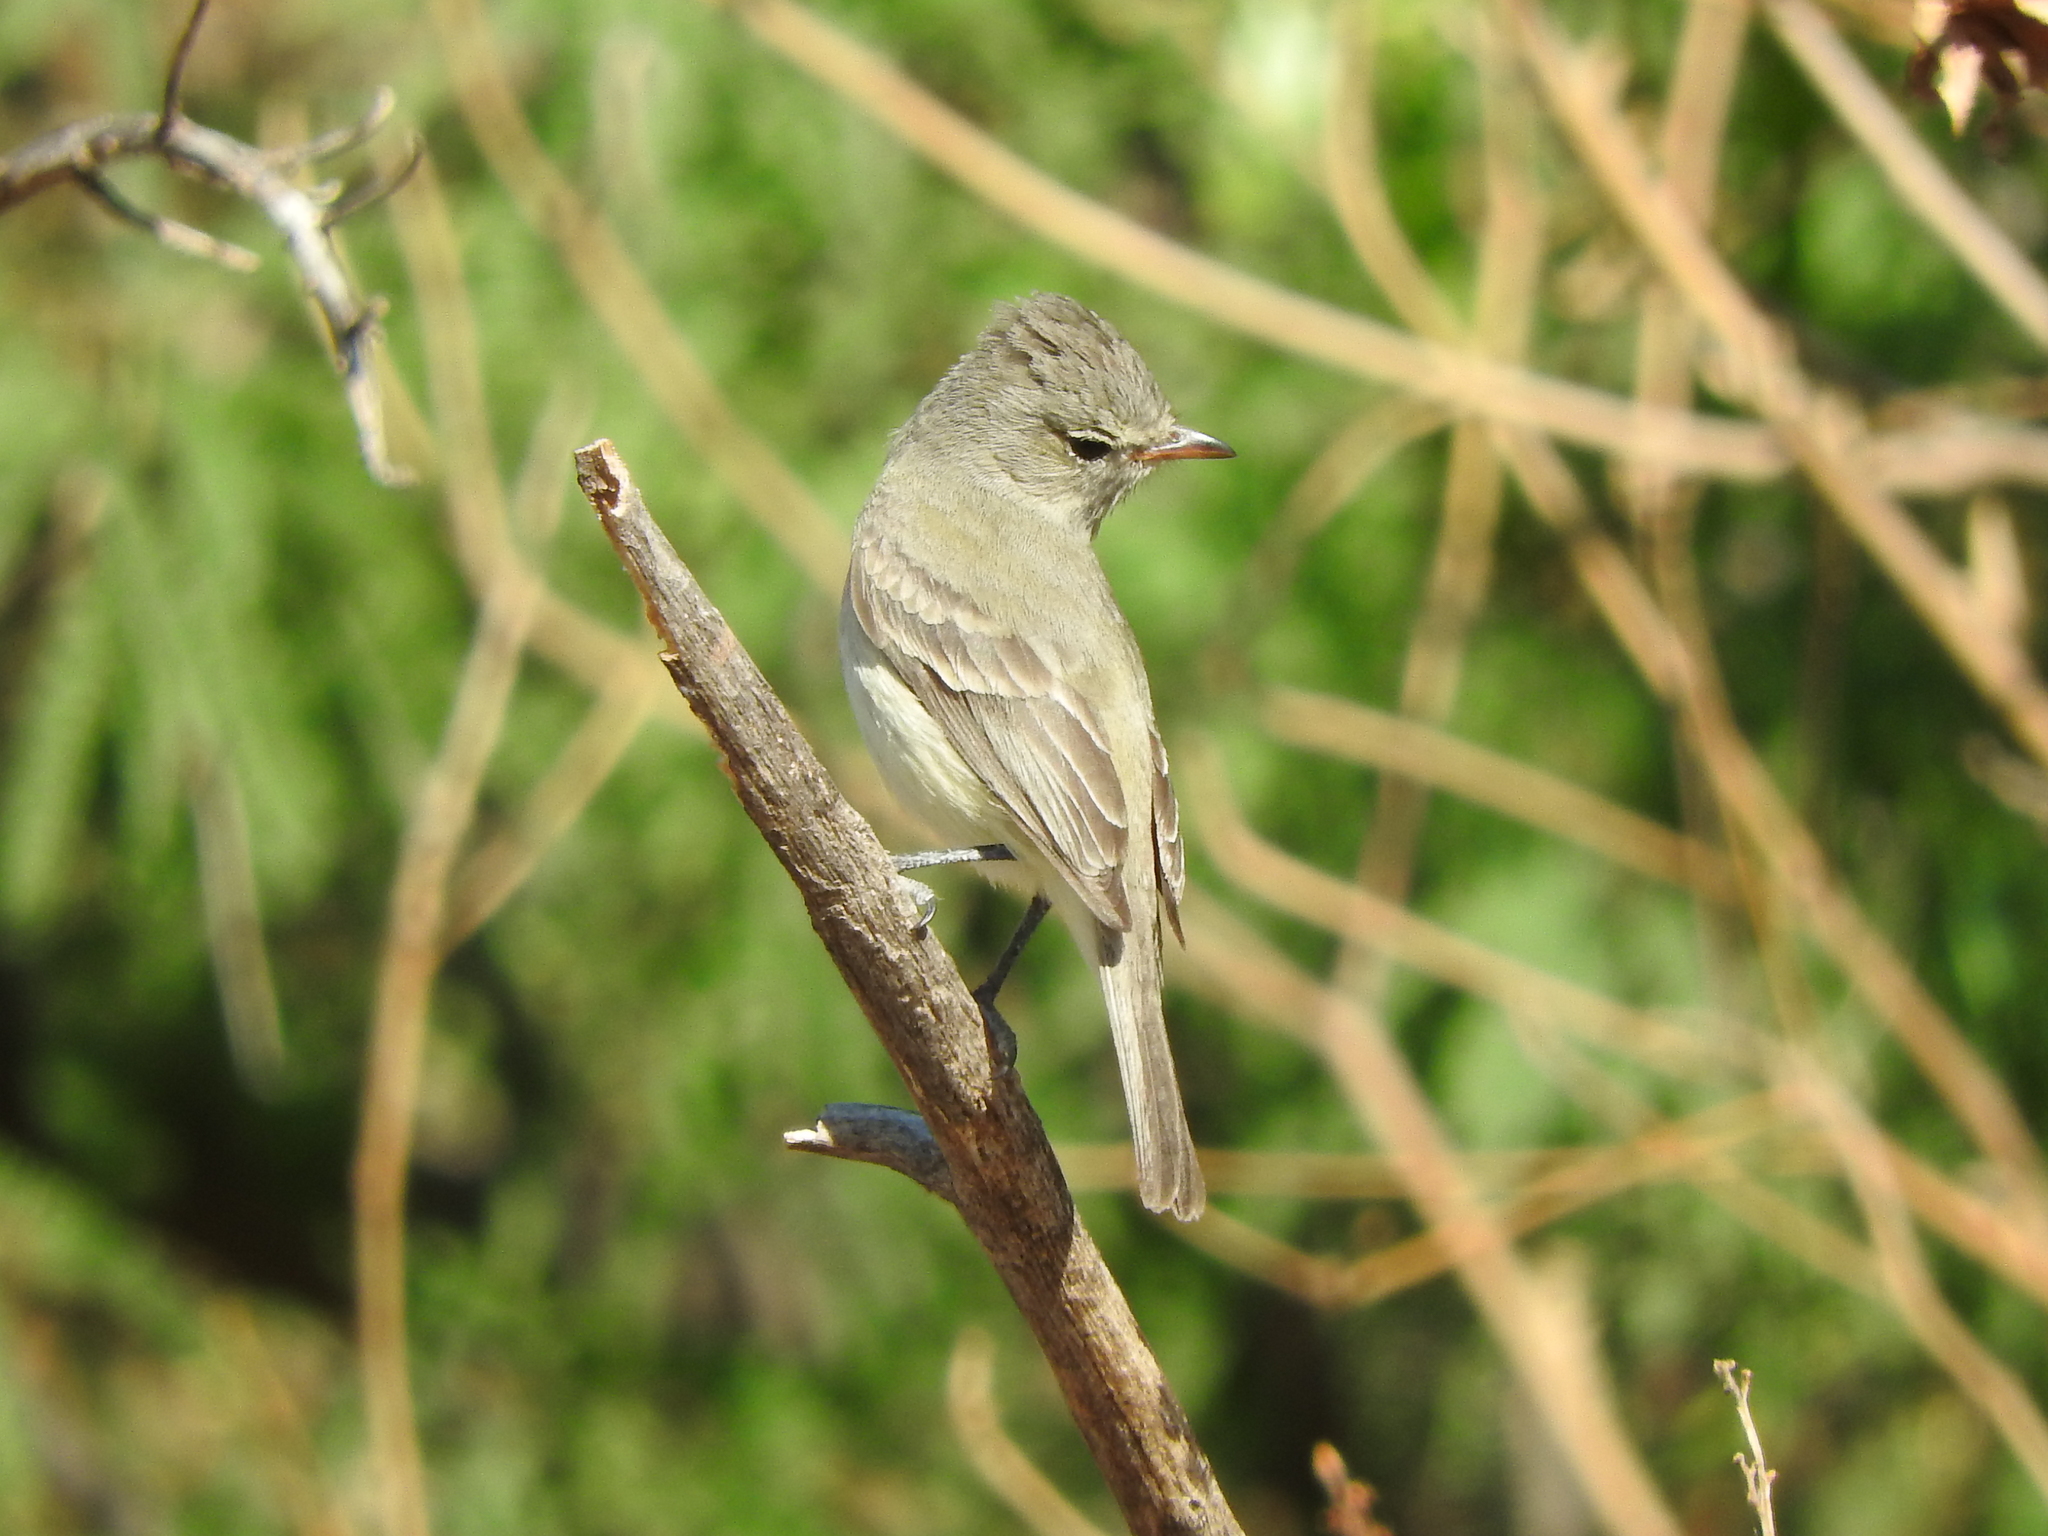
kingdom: Animalia
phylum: Chordata
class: Aves
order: Passeriformes
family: Tyrannidae
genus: Camptostoma
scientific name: Camptostoma imberbe
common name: Northern beardless-tyrannulet
